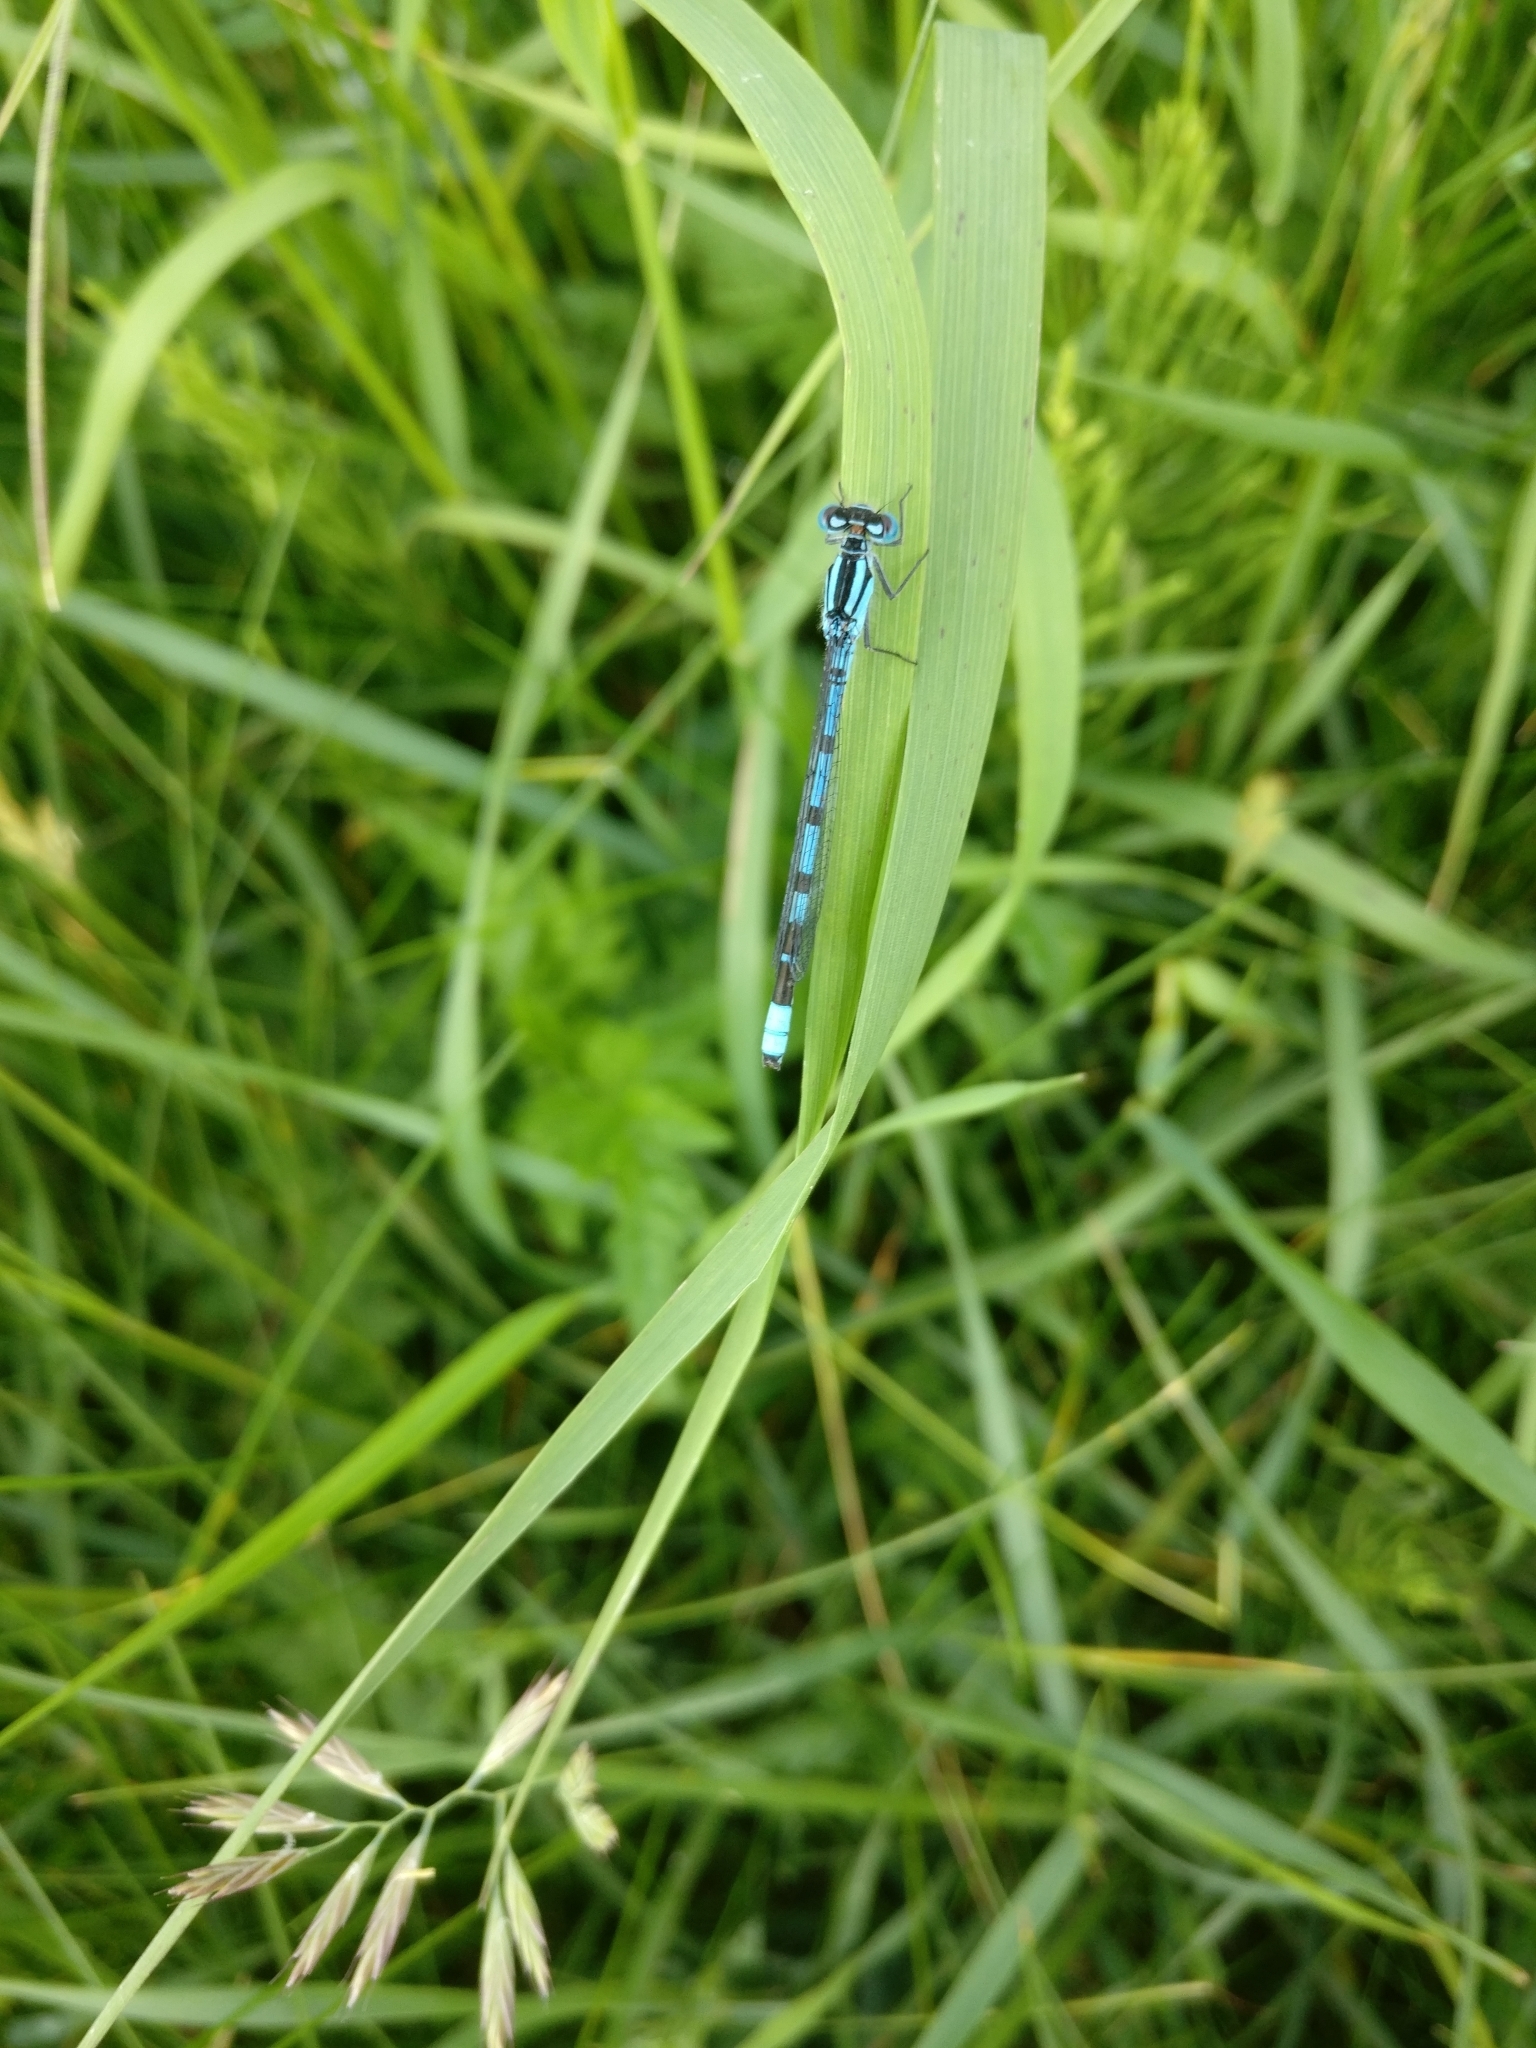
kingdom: Animalia
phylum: Arthropoda
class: Insecta
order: Odonata
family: Coenagrionidae
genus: Enallagma
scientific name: Enallagma cyathigerum
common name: Common blue damselfly
